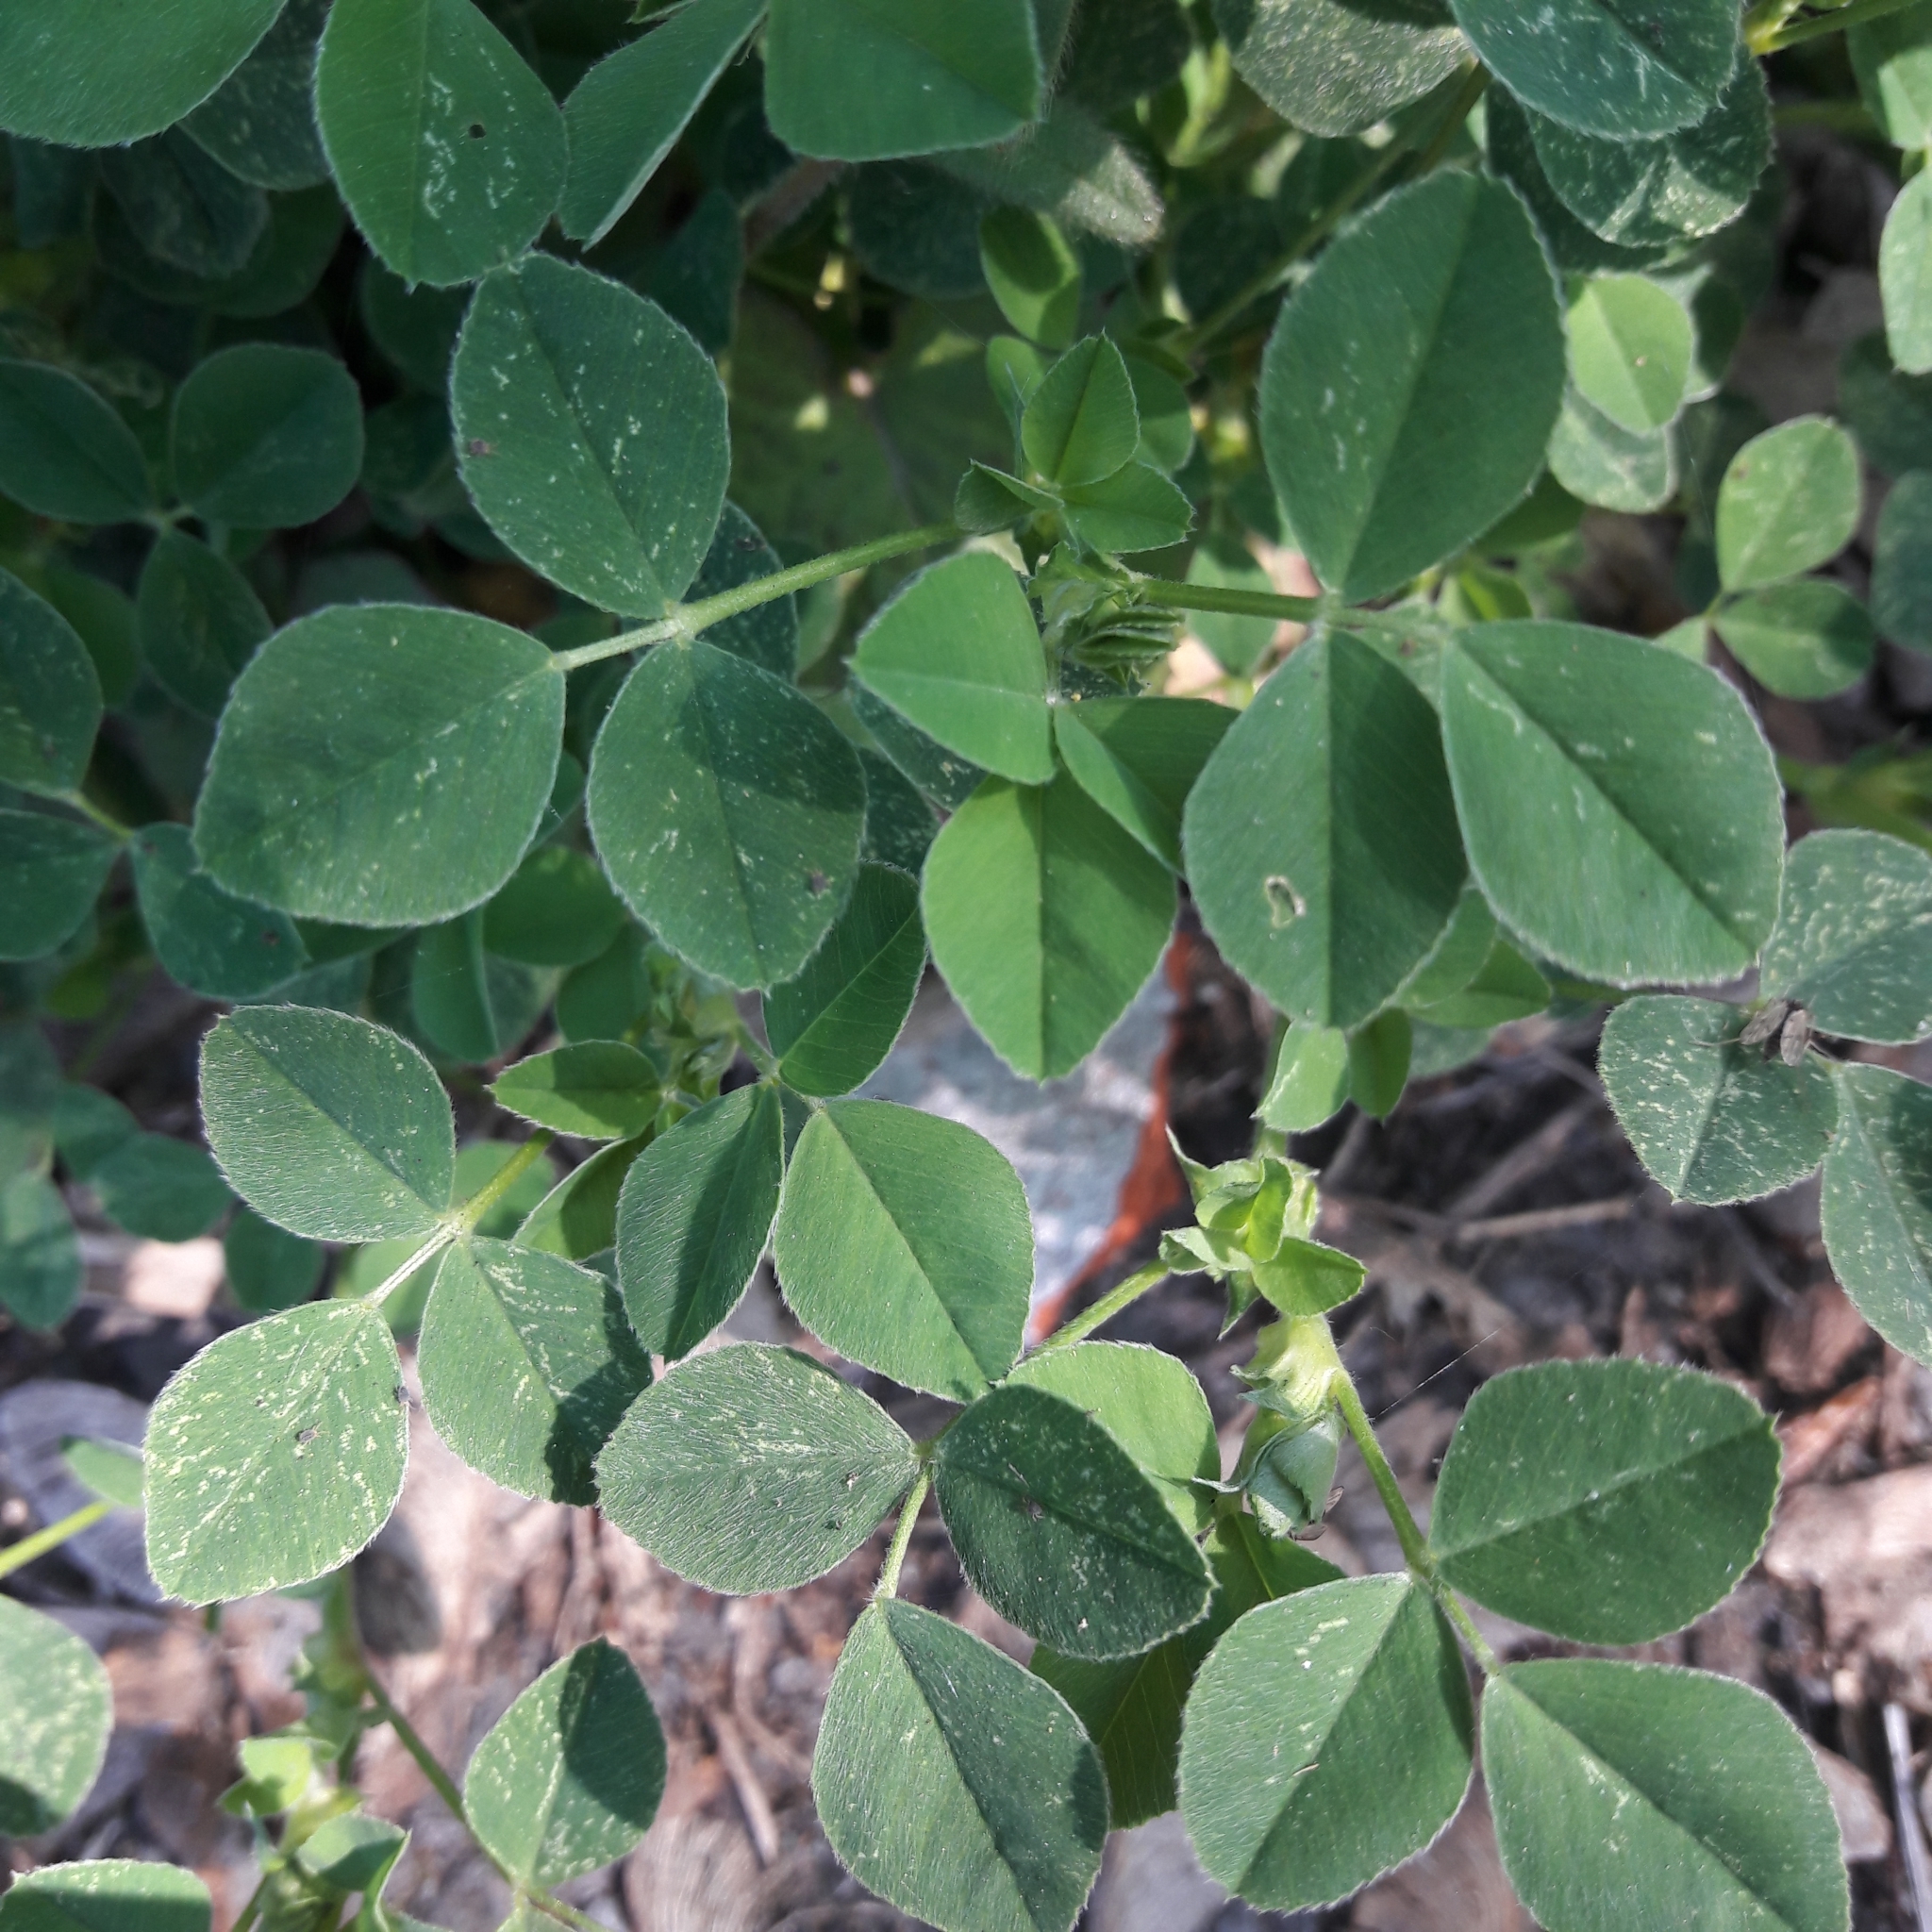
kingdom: Plantae
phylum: Tracheophyta
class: Magnoliopsida
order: Fabales
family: Fabaceae
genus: Medicago
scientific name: Medicago lupulina
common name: Black medick
